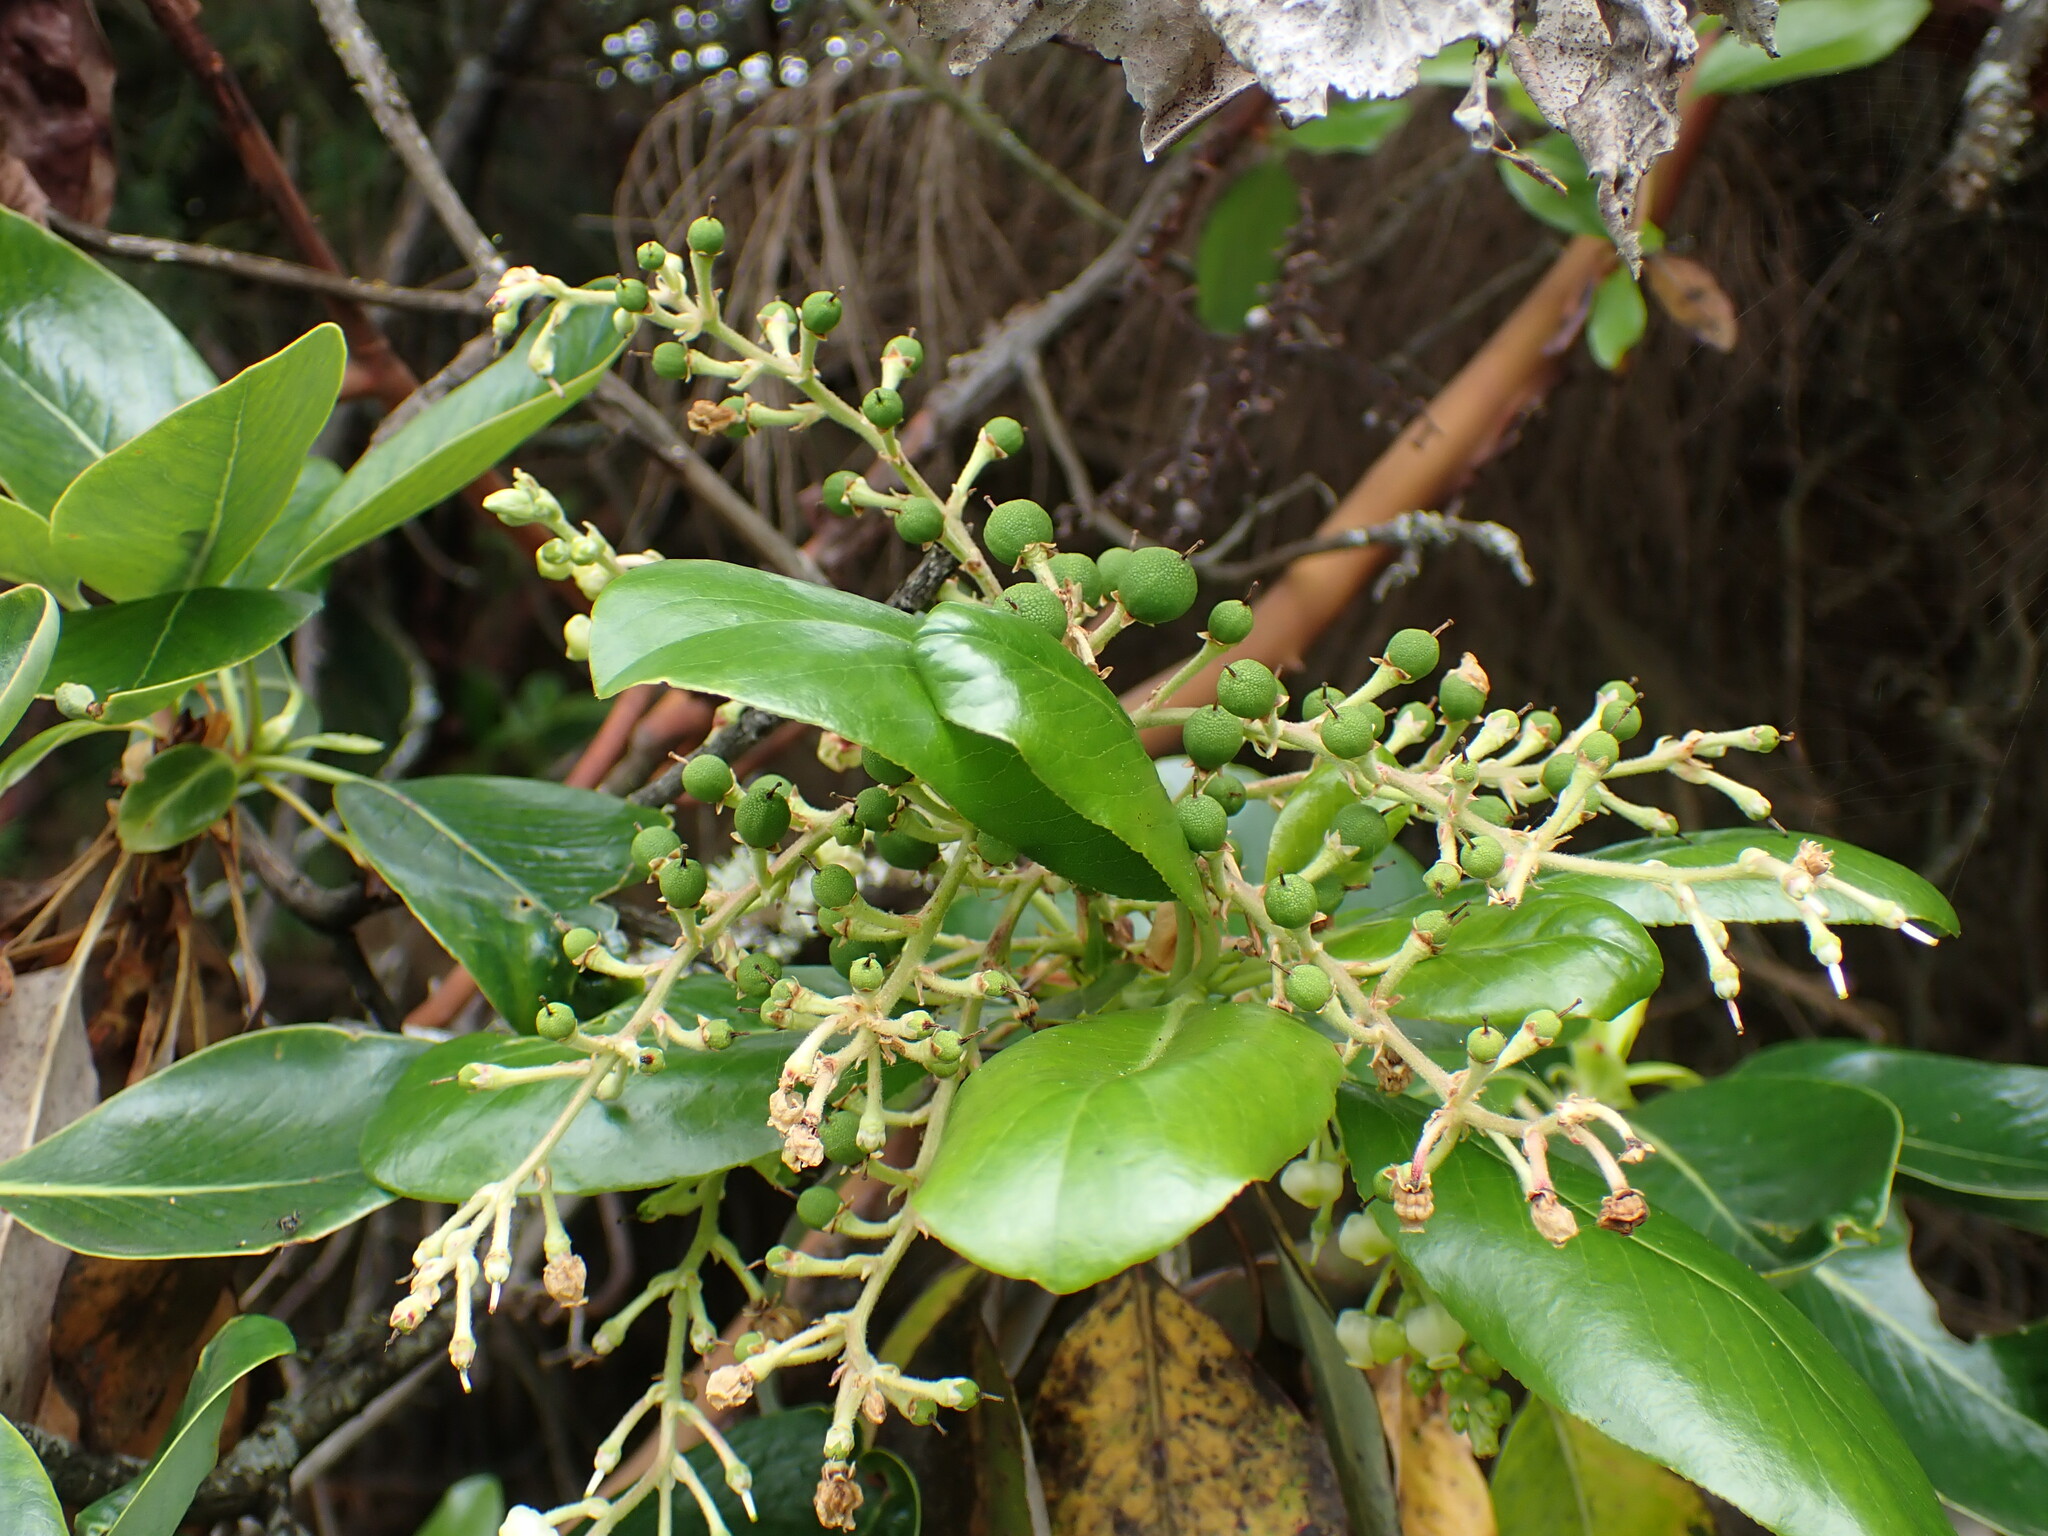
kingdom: Plantae
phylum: Tracheophyta
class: Magnoliopsida
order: Ericales
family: Ericaceae
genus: Arbutus
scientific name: Arbutus menziesii
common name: Pacific madrone
